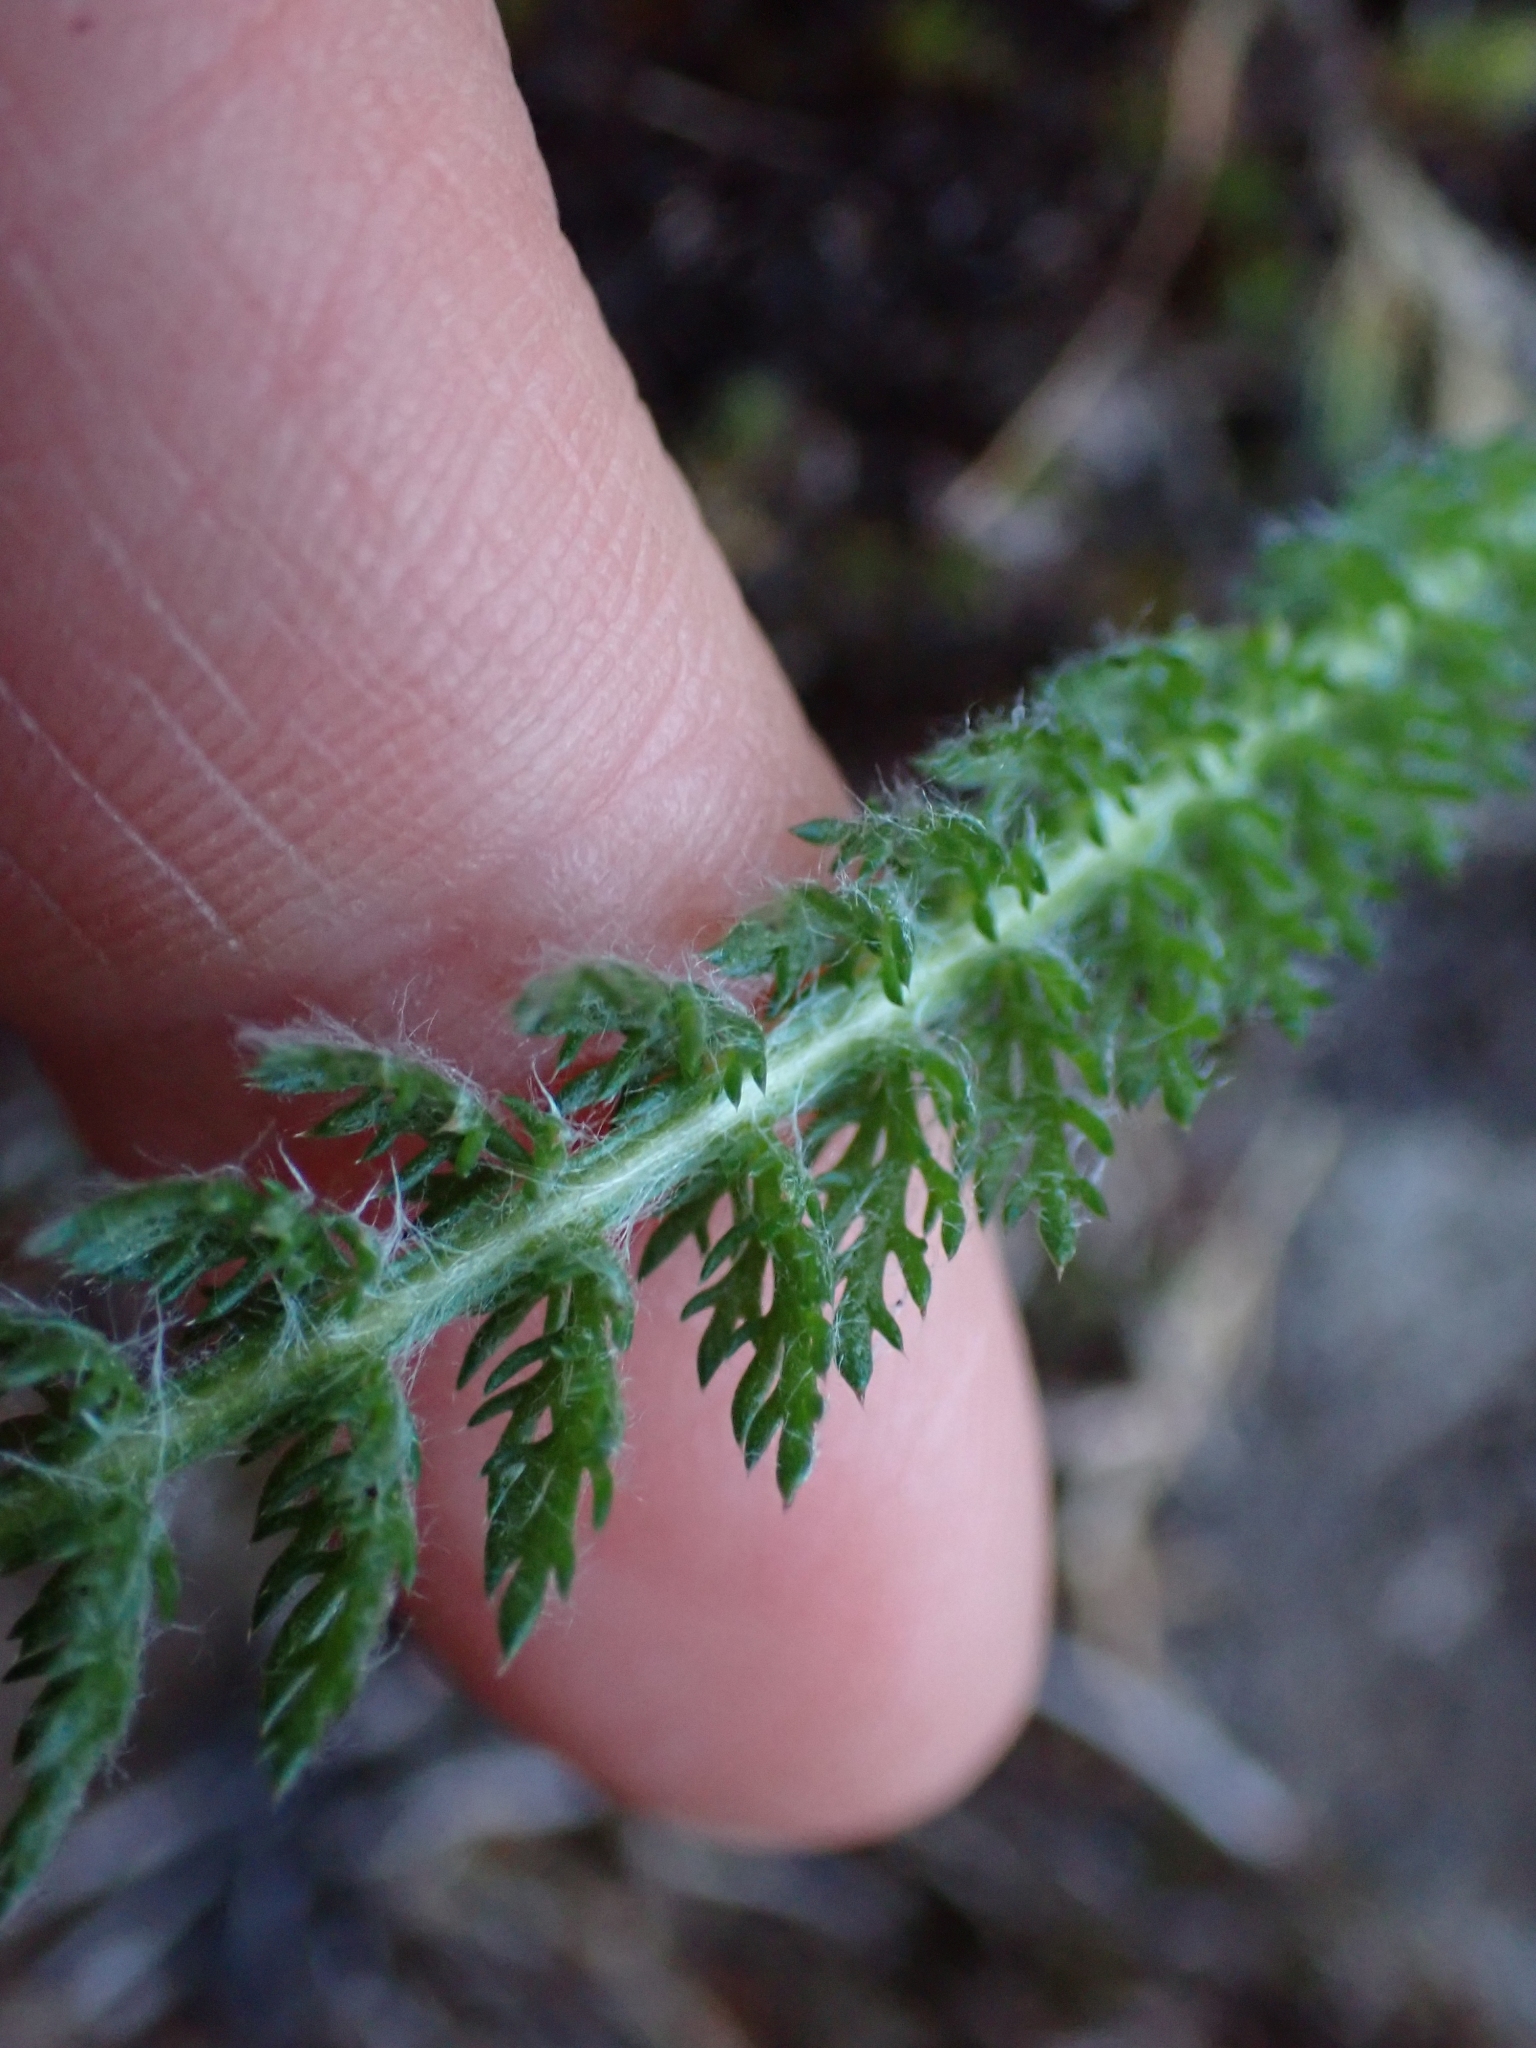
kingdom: Plantae
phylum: Tracheophyta
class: Magnoliopsida
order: Asterales
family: Asteraceae
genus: Achillea
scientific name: Achillea millefolium
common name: Yarrow
